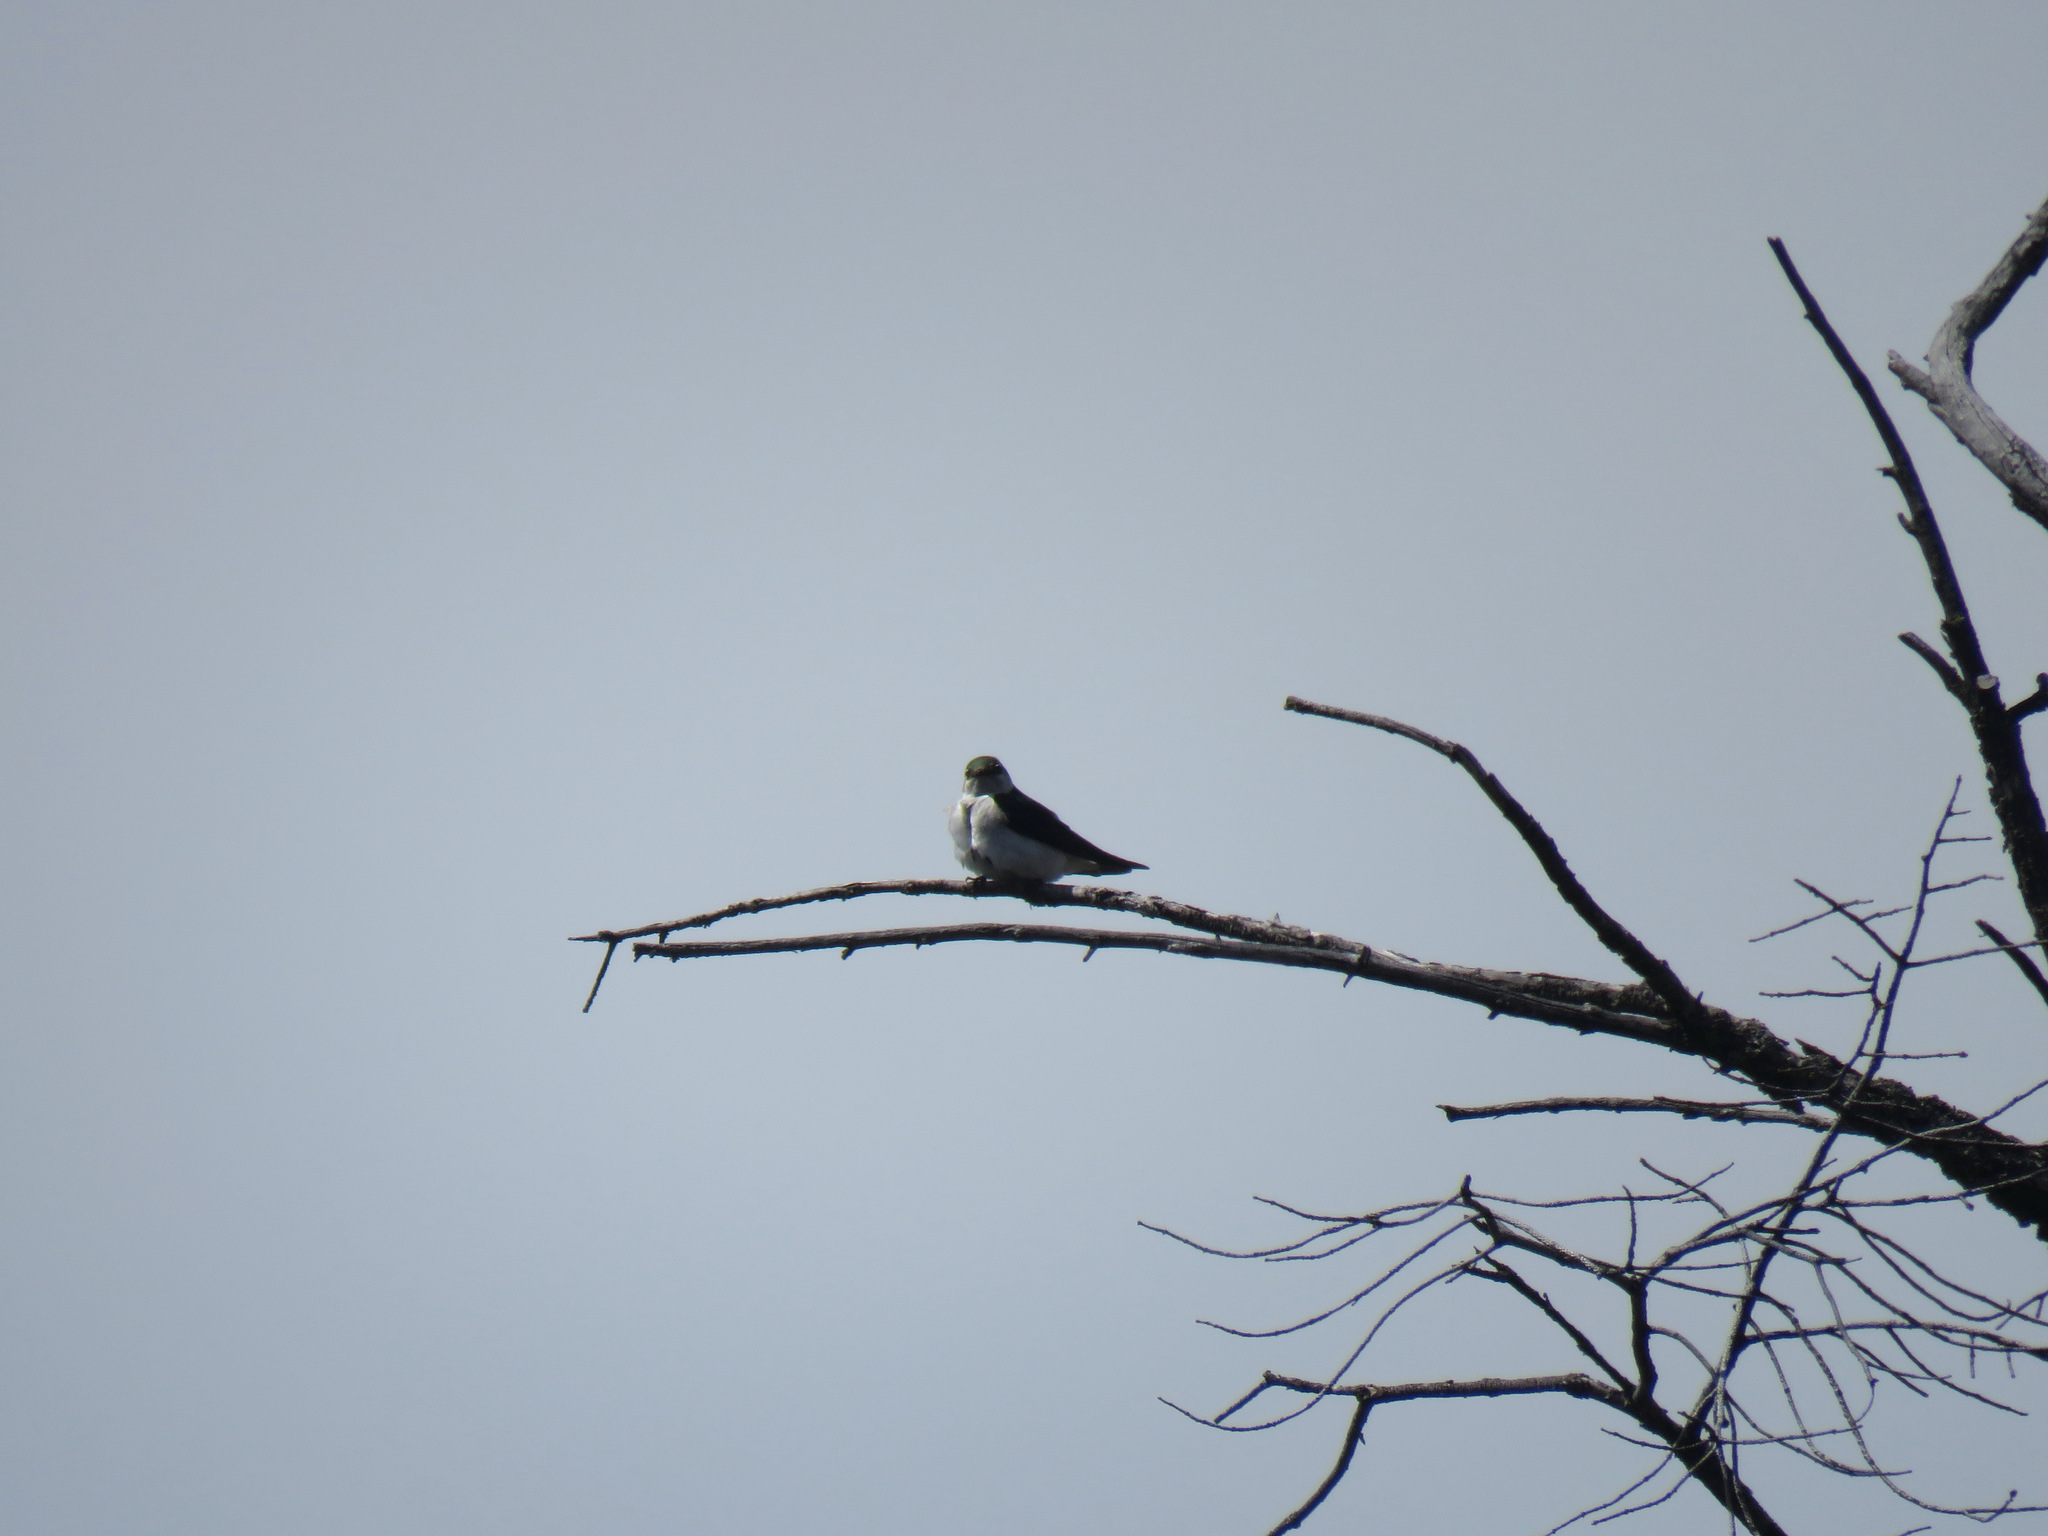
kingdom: Animalia
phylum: Chordata
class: Aves
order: Passeriformes
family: Hirundinidae
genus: Tachycineta
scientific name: Tachycineta thalassina
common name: Violet-green swallow
